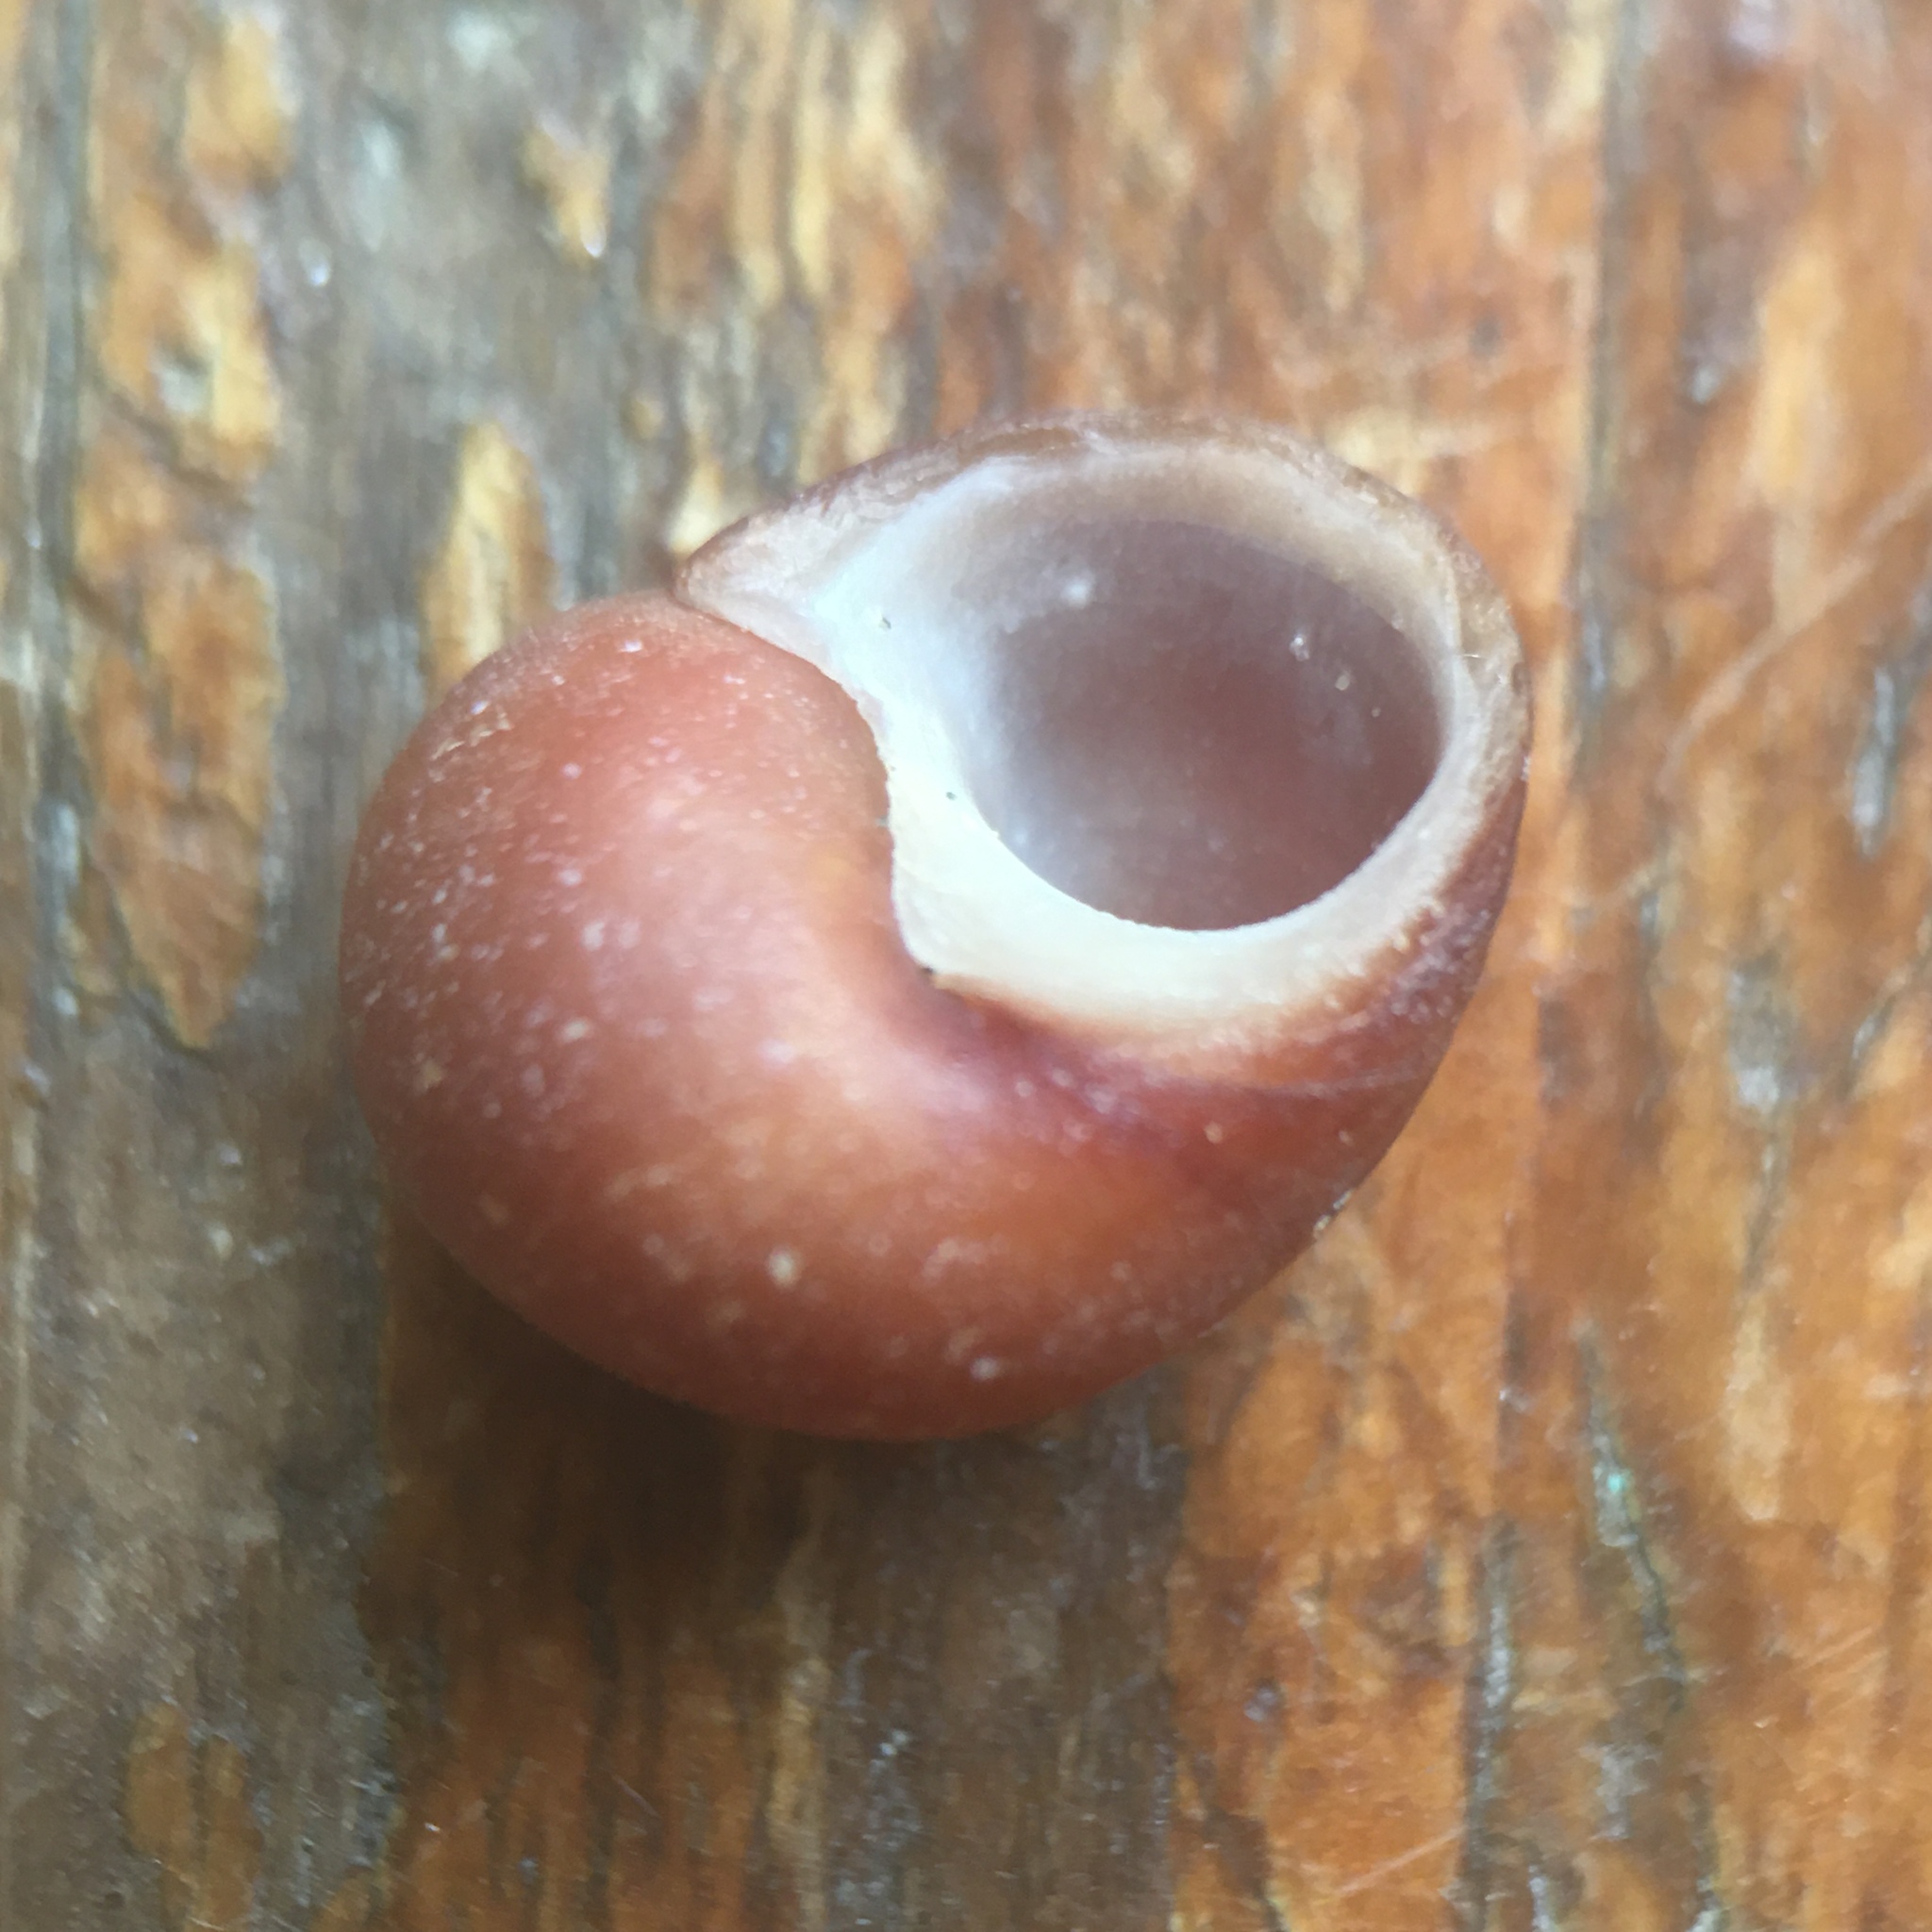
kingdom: Animalia
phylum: Mollusca
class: Gastropoda
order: Littorinimorpha
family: Littorinidae
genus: Littorina
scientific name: Littorina obtusata
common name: Flat periwinkle
